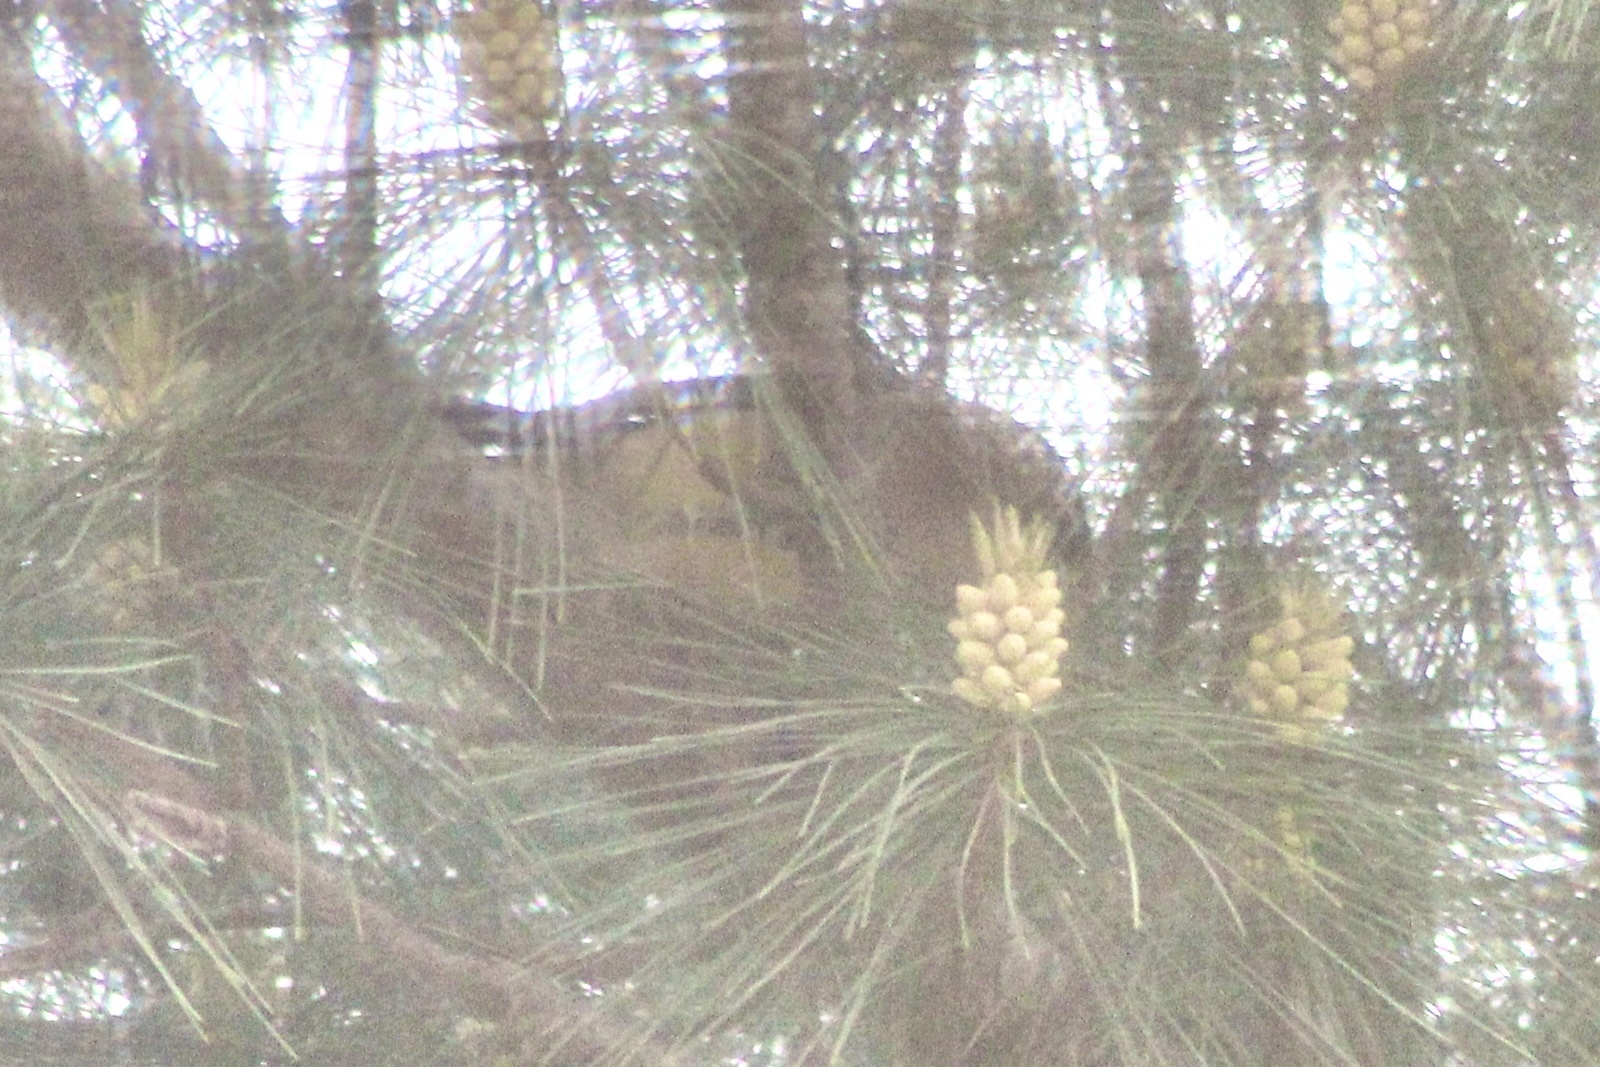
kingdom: Animalia
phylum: Chordata
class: Aves
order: Passeriformes
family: Bombycillidae
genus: Bombycilla
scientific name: Bombycilla cedrorum
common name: Cedar waxwing
